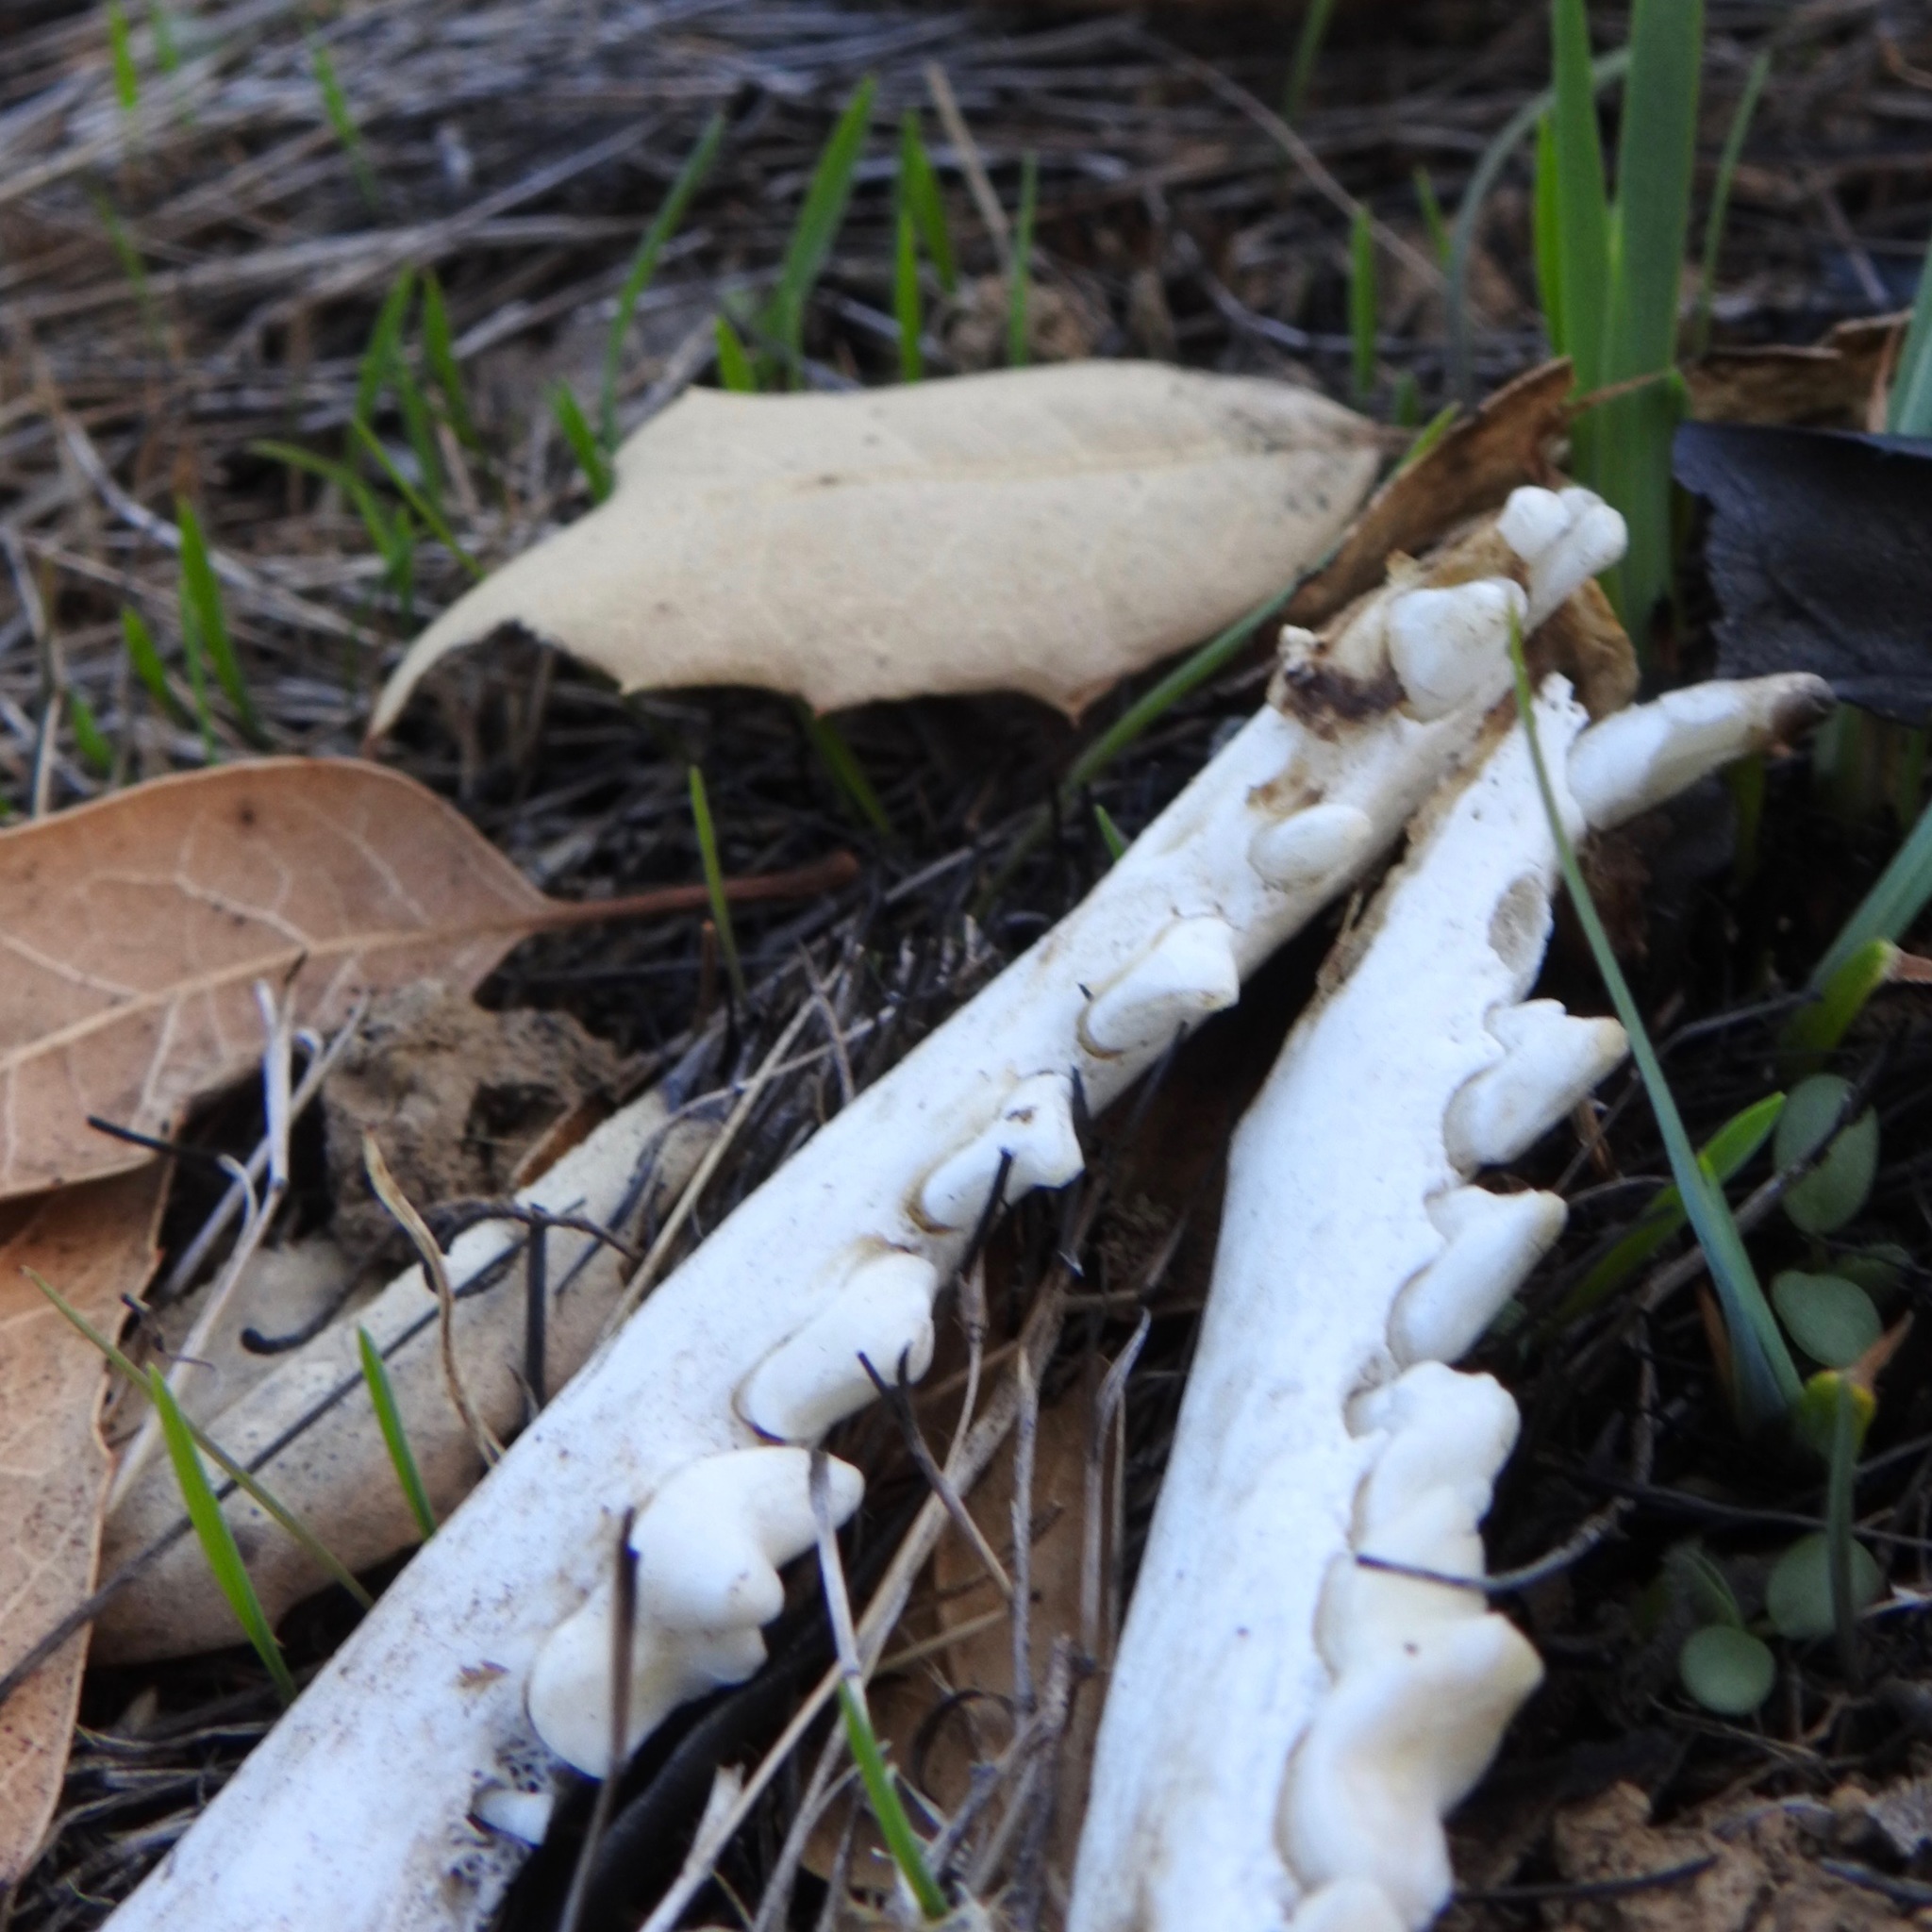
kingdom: Animalia
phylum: Chordata
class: Mammalia
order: Carnivora
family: Canidae
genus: Urocyon
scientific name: Urocyon cinereoargenteus
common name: Gray fox
